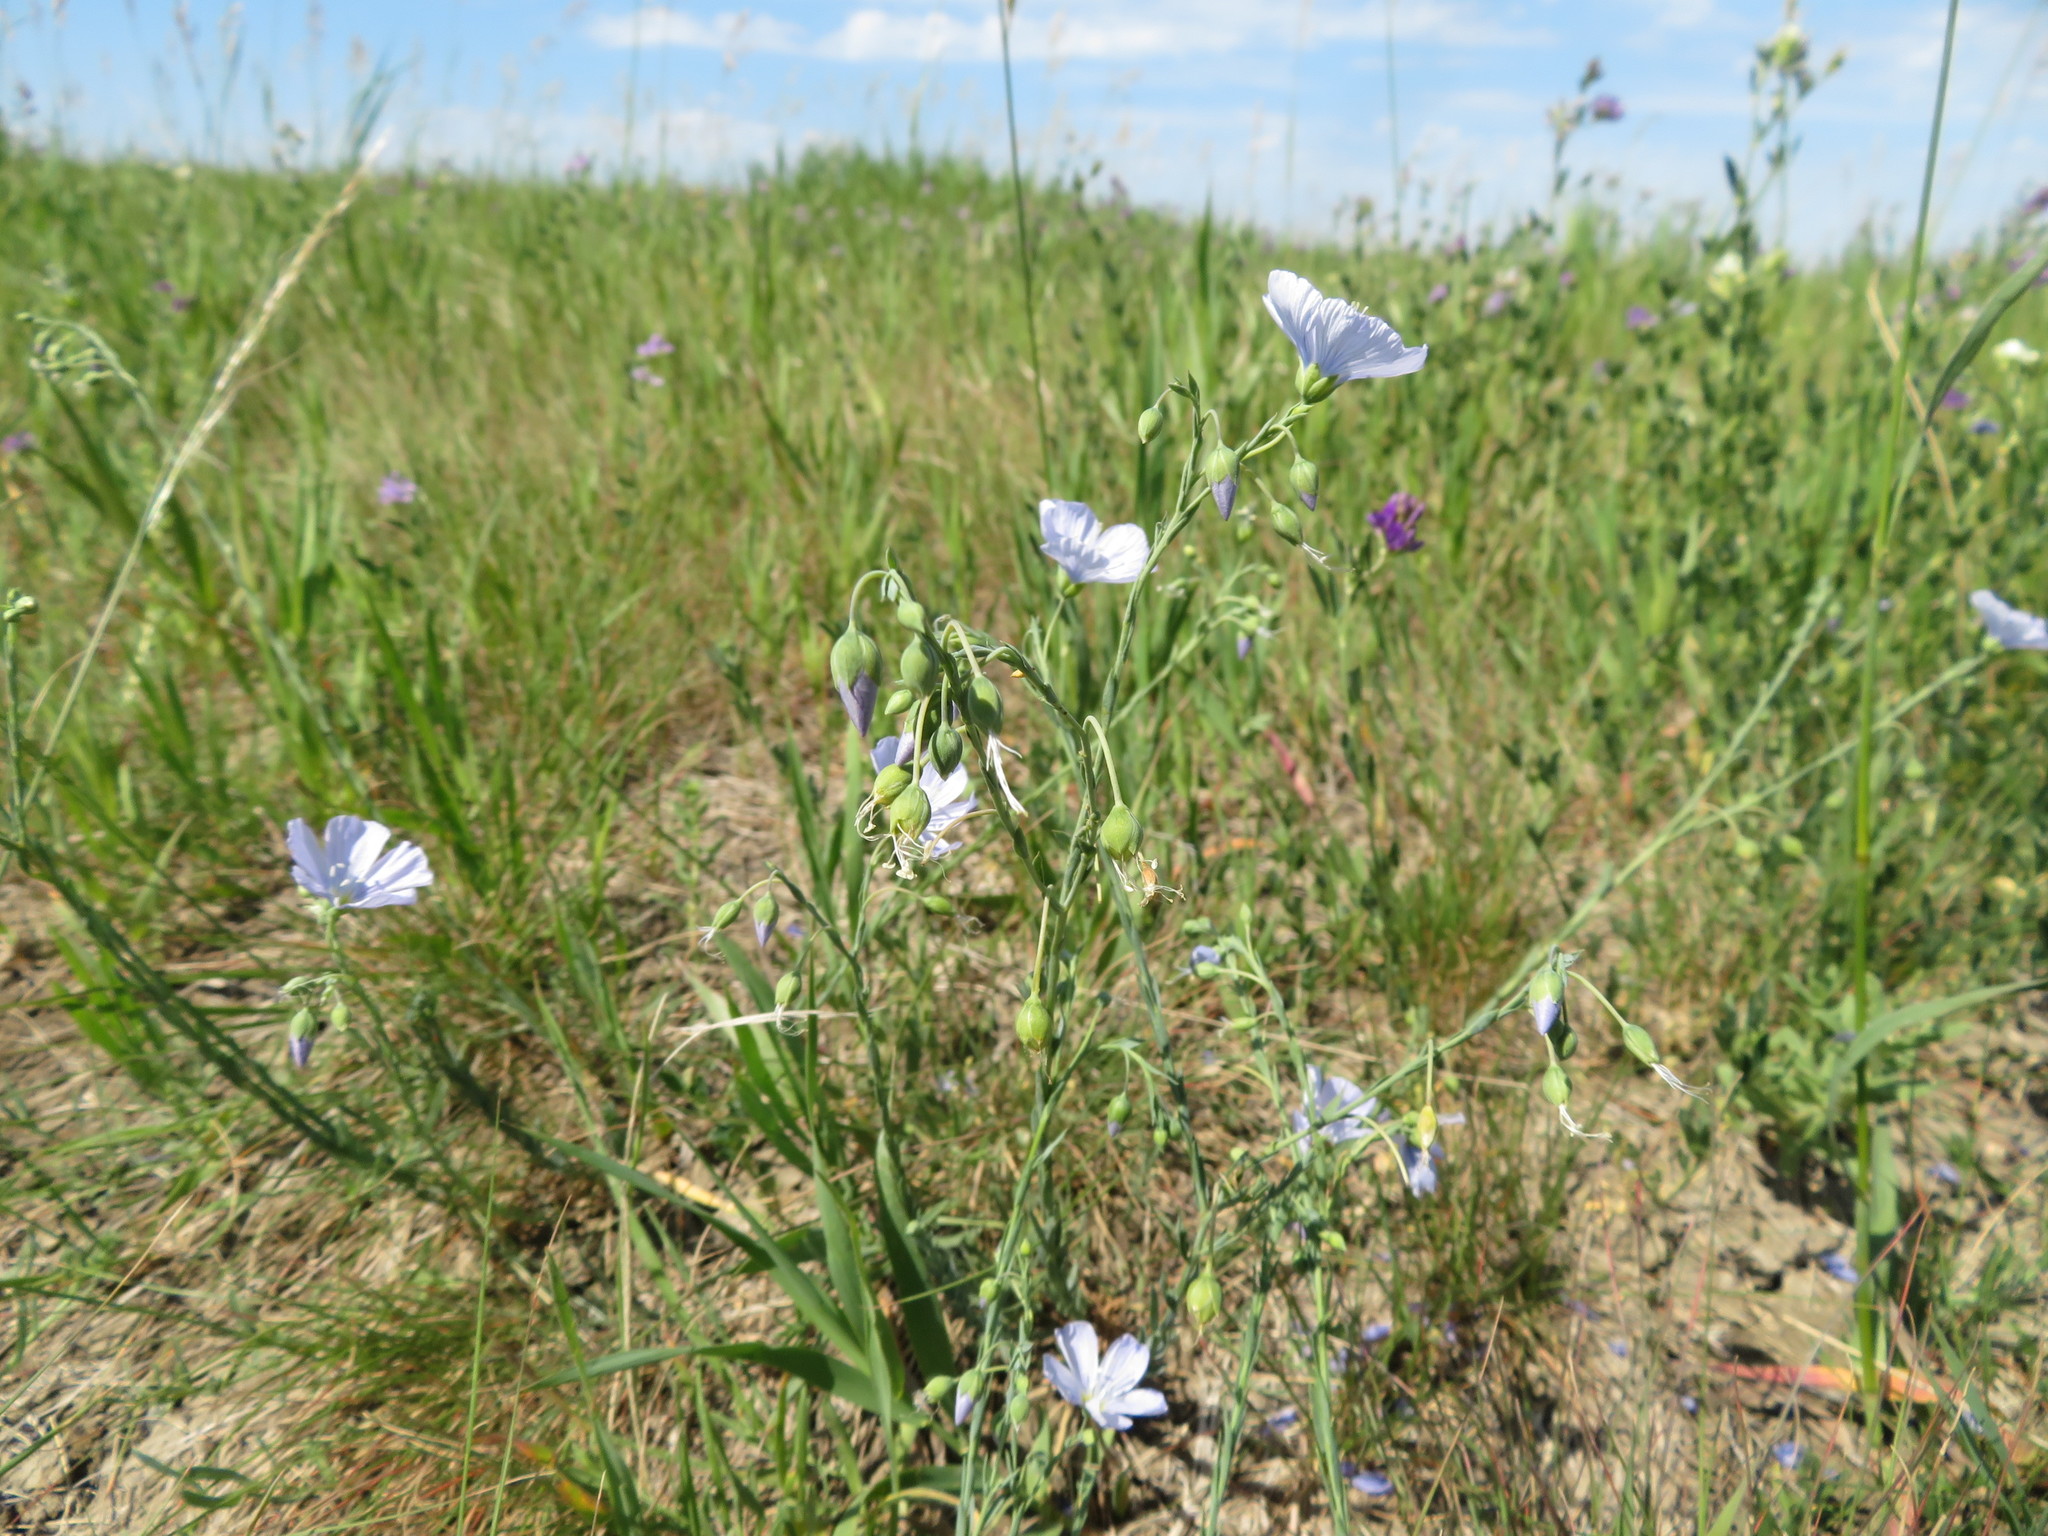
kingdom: Plantae
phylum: Tracheophyta
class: Magnoliopsida
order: Malpighiales
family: Linaceae
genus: Linum
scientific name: Linum lewisii
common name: Prairie flax
